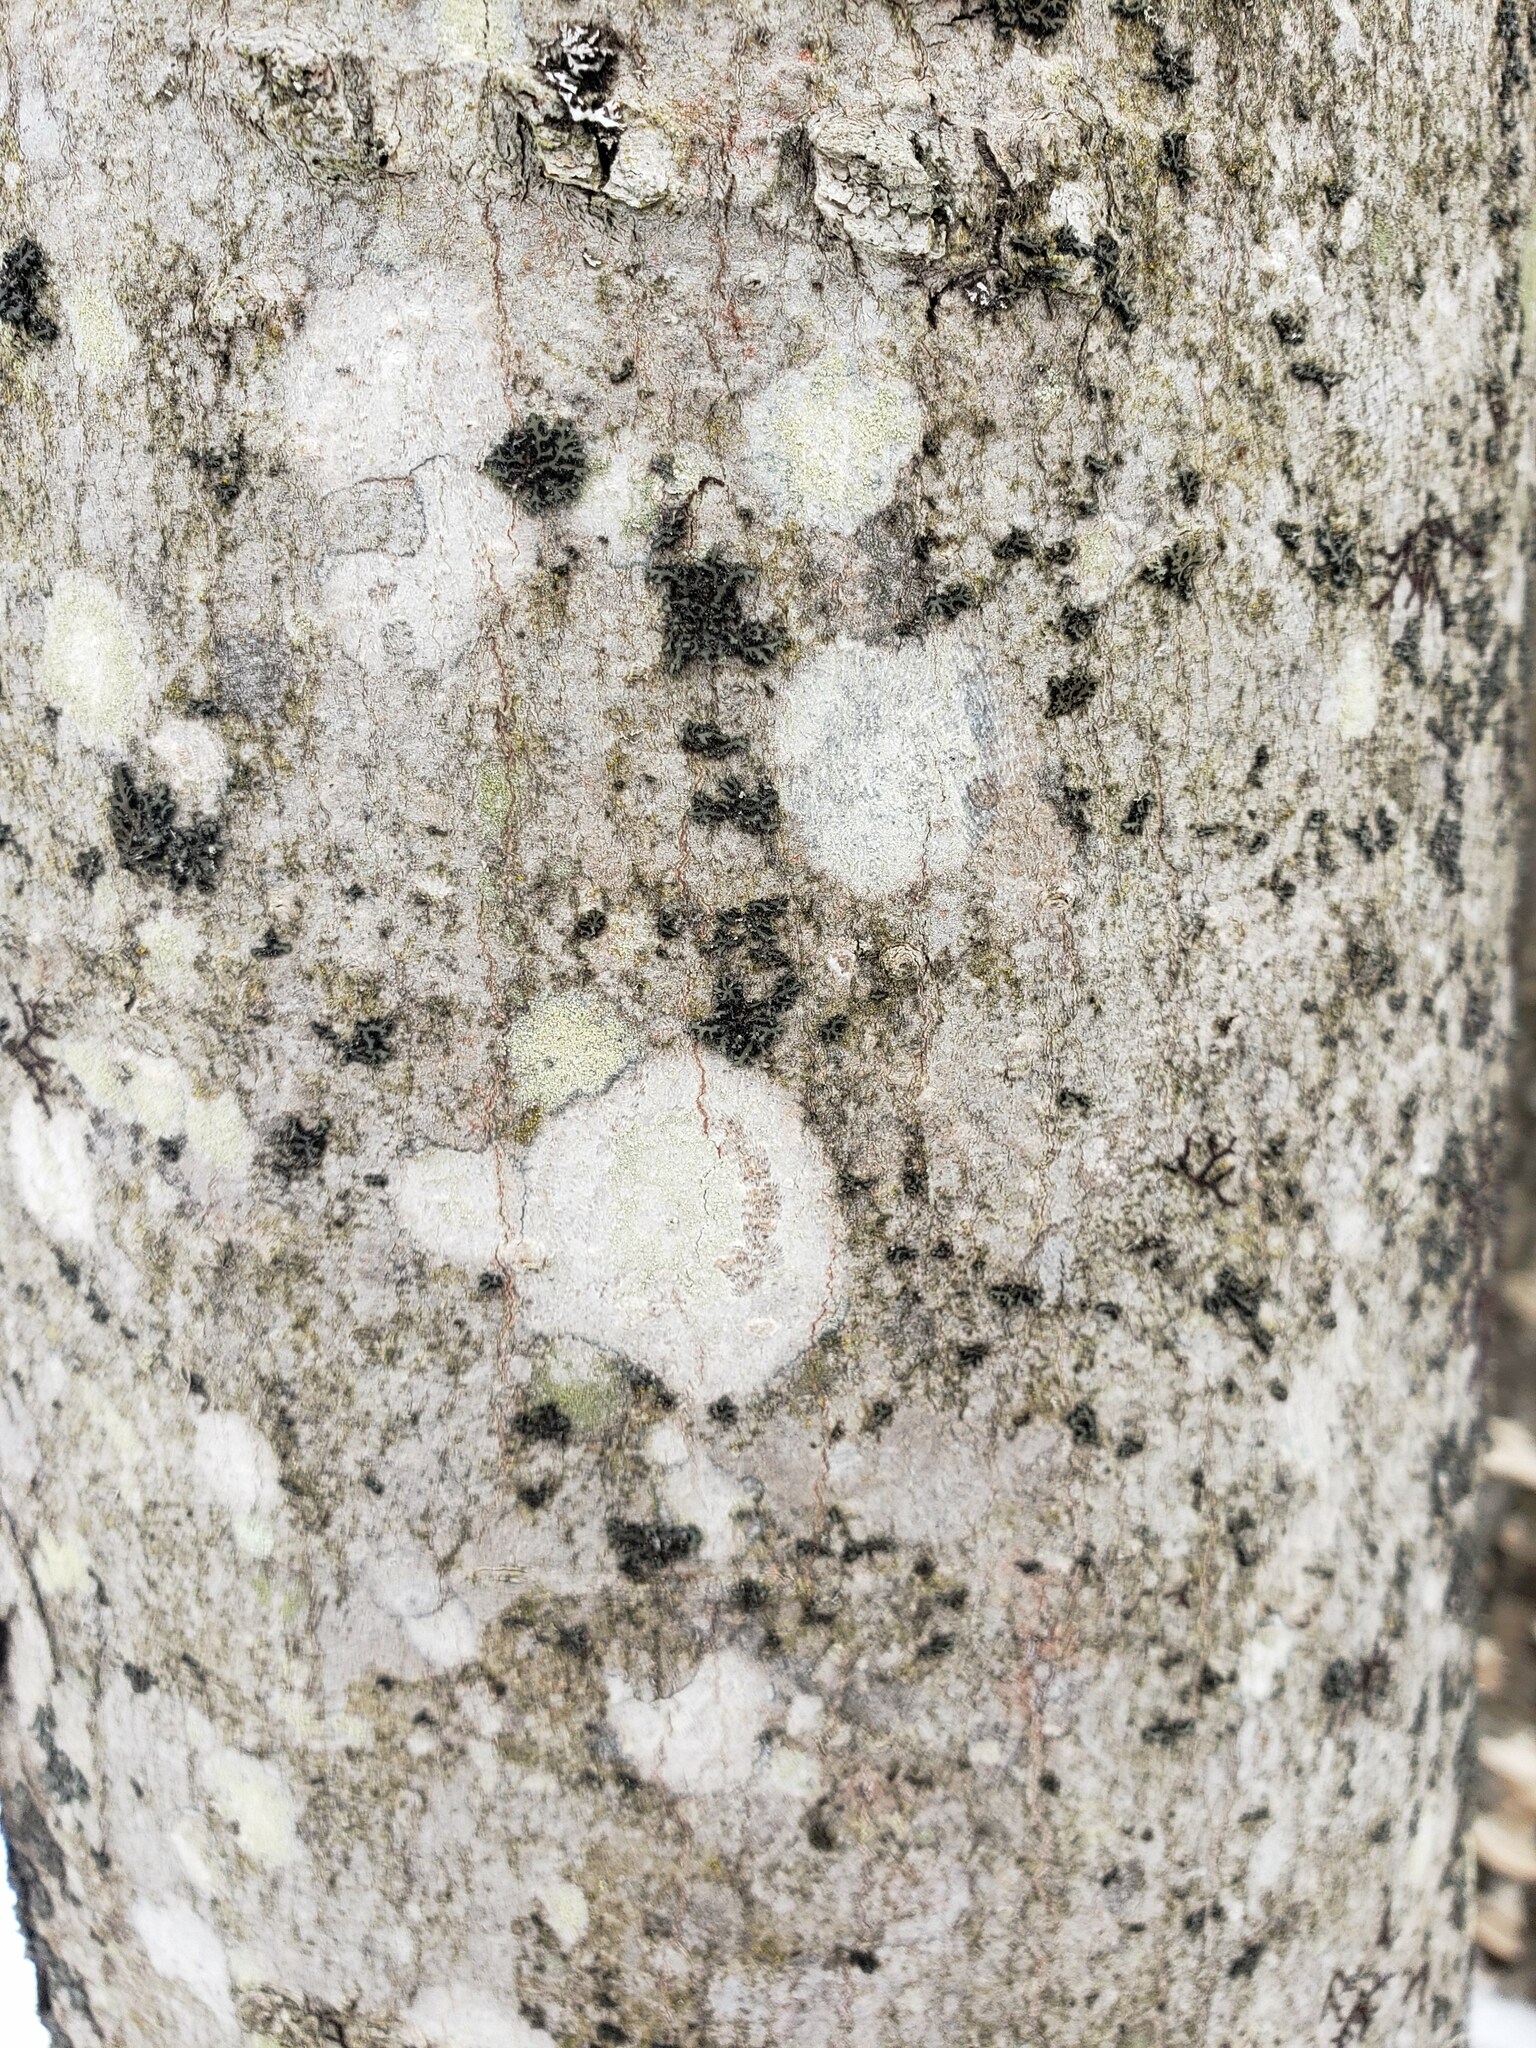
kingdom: Fungi
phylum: Ascomycota
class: Lecanoromycetes
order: Pertusariales
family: Pertusariaceae
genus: Verseghya
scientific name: Verseghya thysanophora
